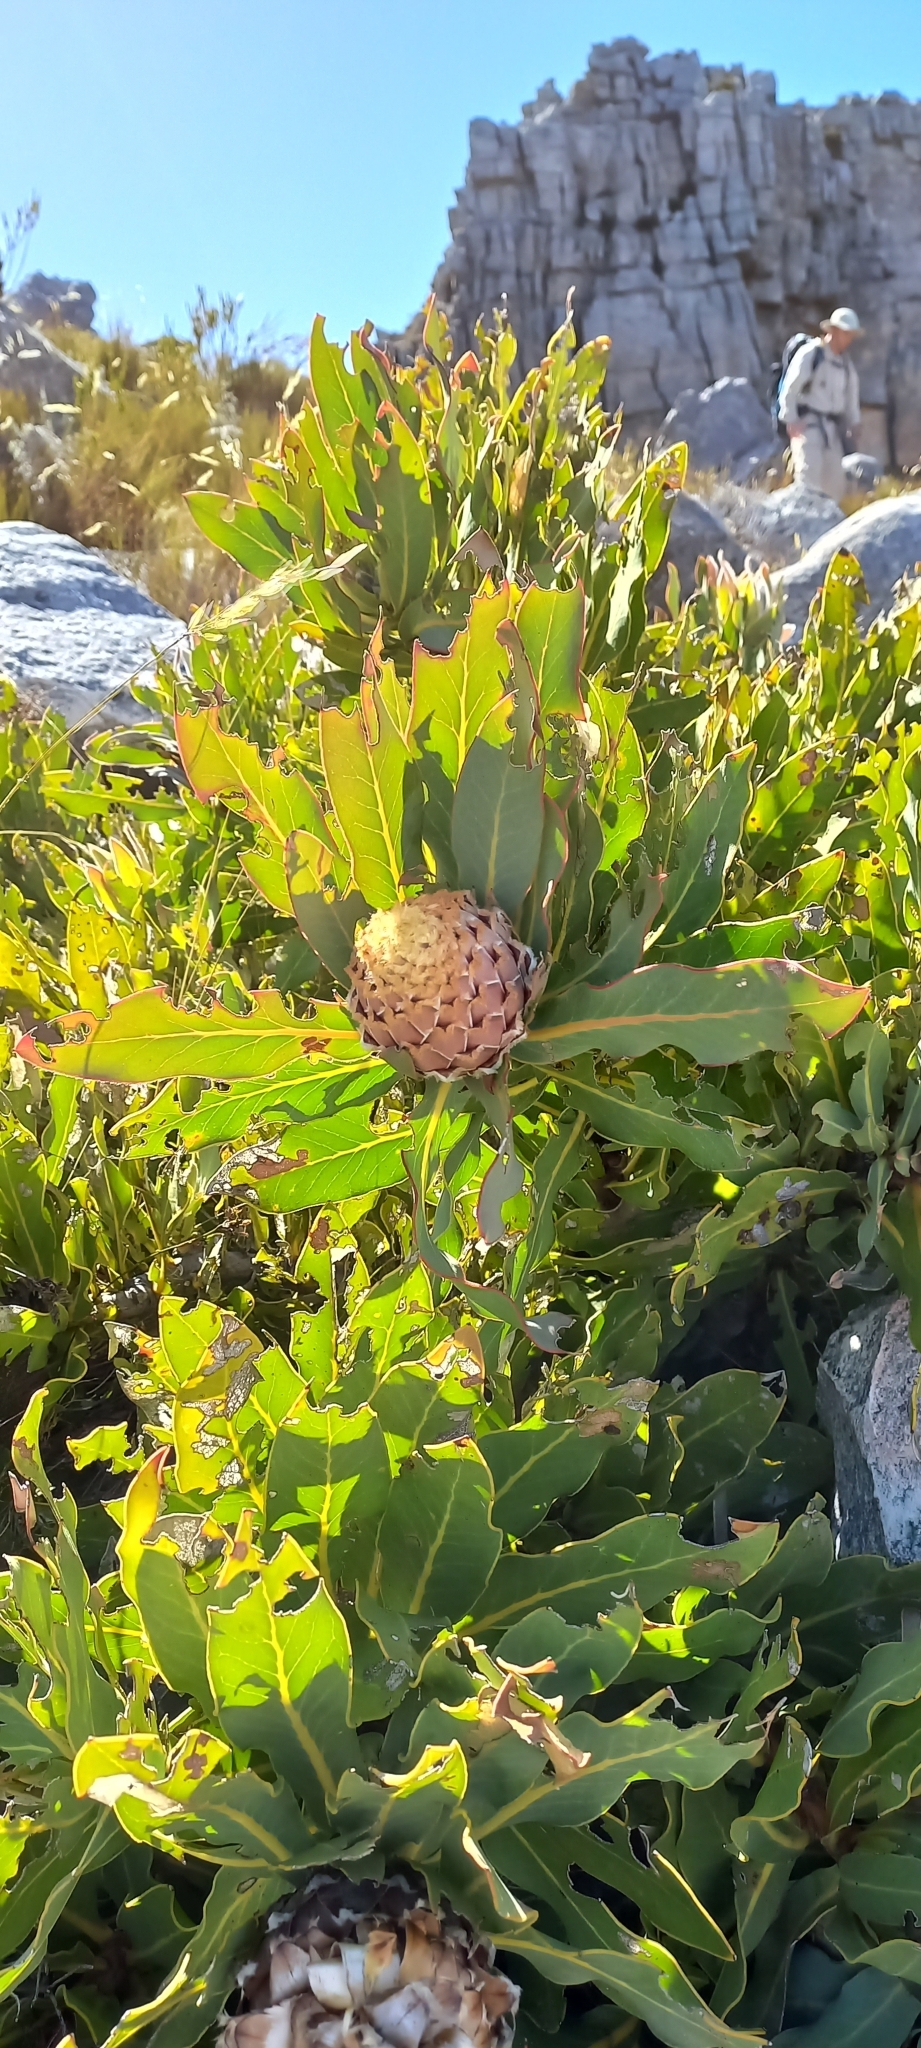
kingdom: Plantae
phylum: Tracheophyta
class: Magnoliopsida
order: Proteales
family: Proteaceae
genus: Protea
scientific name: Protea magnifica
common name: Bearded sugarbush
